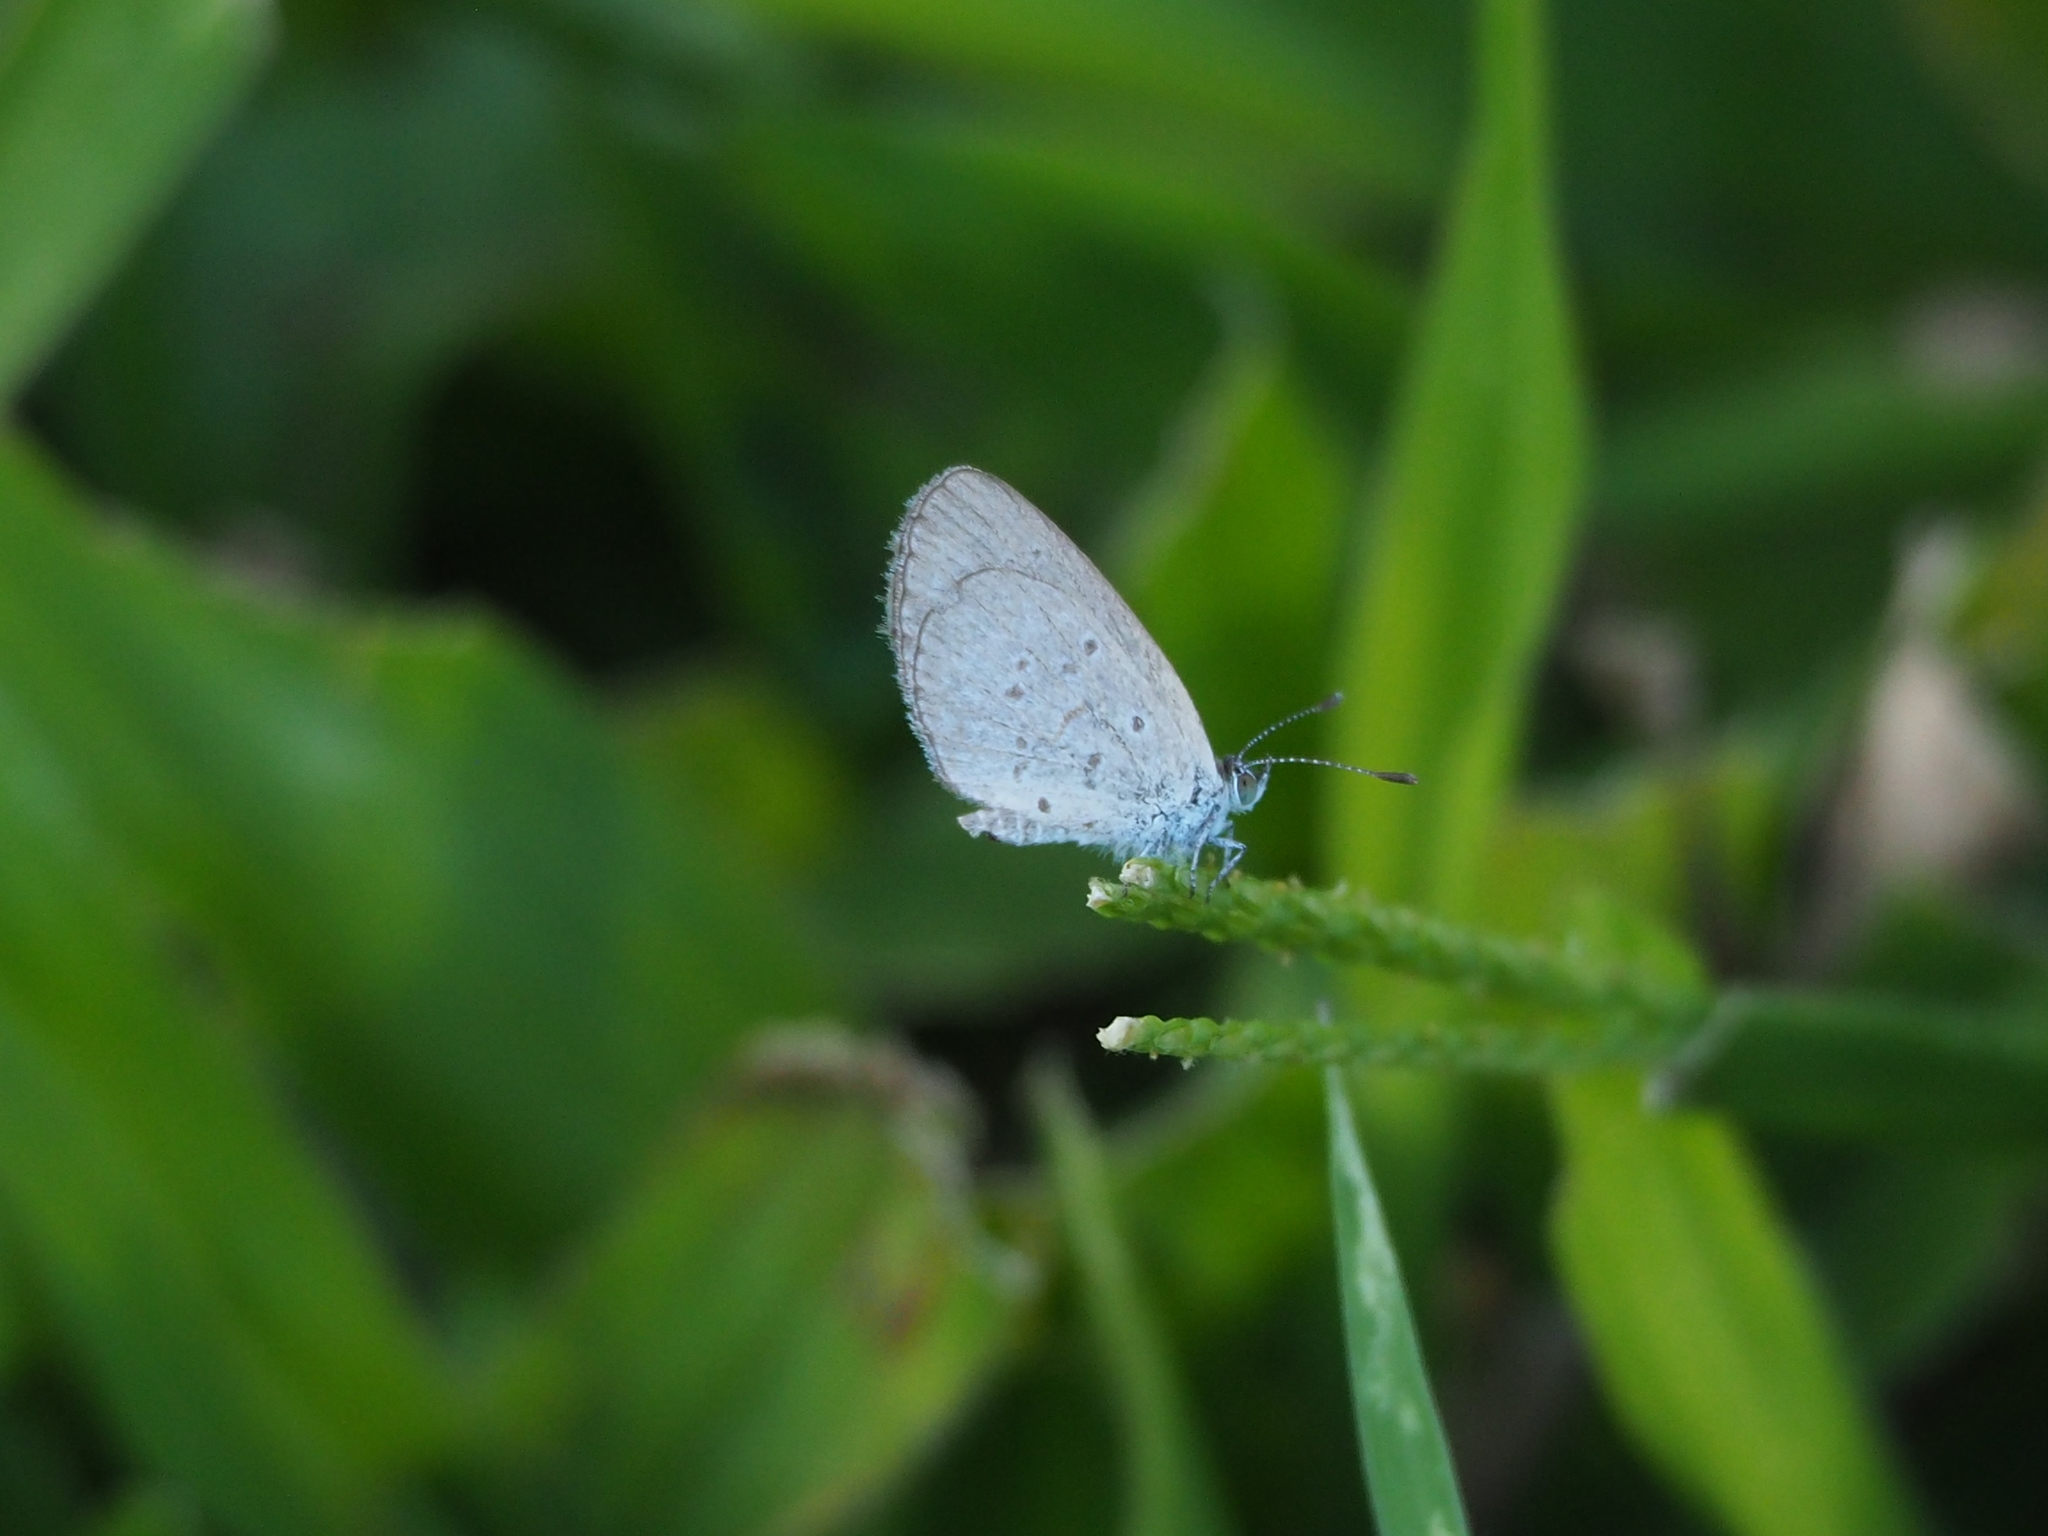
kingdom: Animalia
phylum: Arthropoda
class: Insecta
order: Lepidoptera
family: Lycaenidae
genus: Zizina
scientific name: Zizina otis
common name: Lesser grass blue
